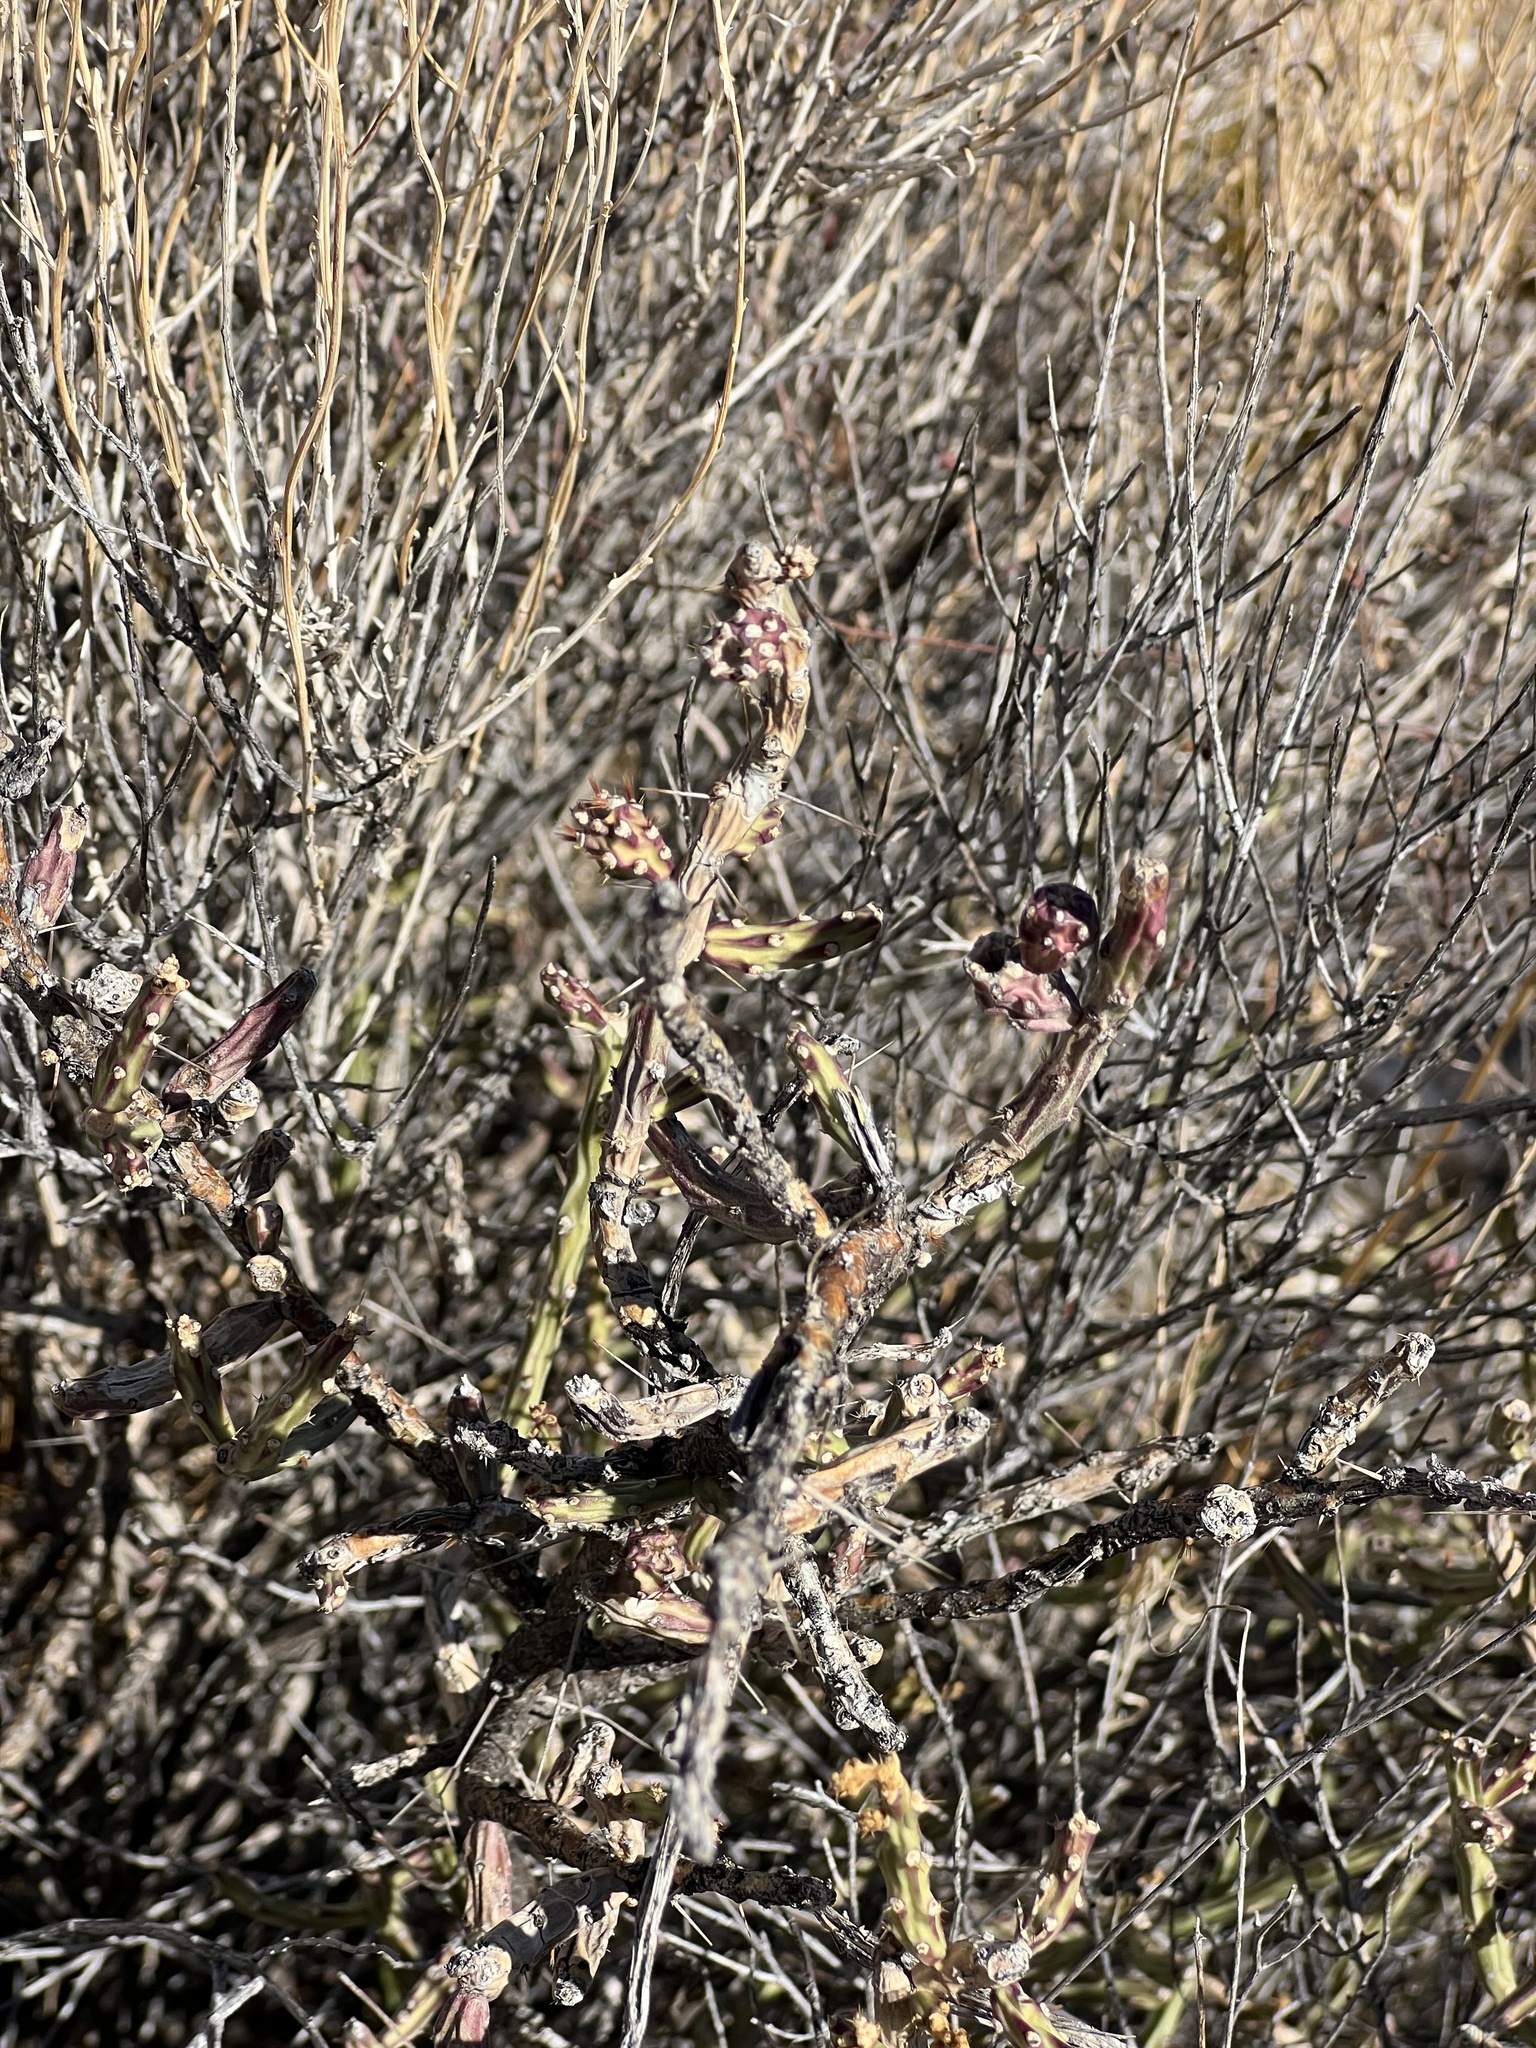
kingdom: Plantae
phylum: Tracheophyta
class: Magnoliopsida
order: Caryophyllales
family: Cactaceae
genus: Cylindropuntia
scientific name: Cylindropuntia leptocaulis
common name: Christmas cactus
